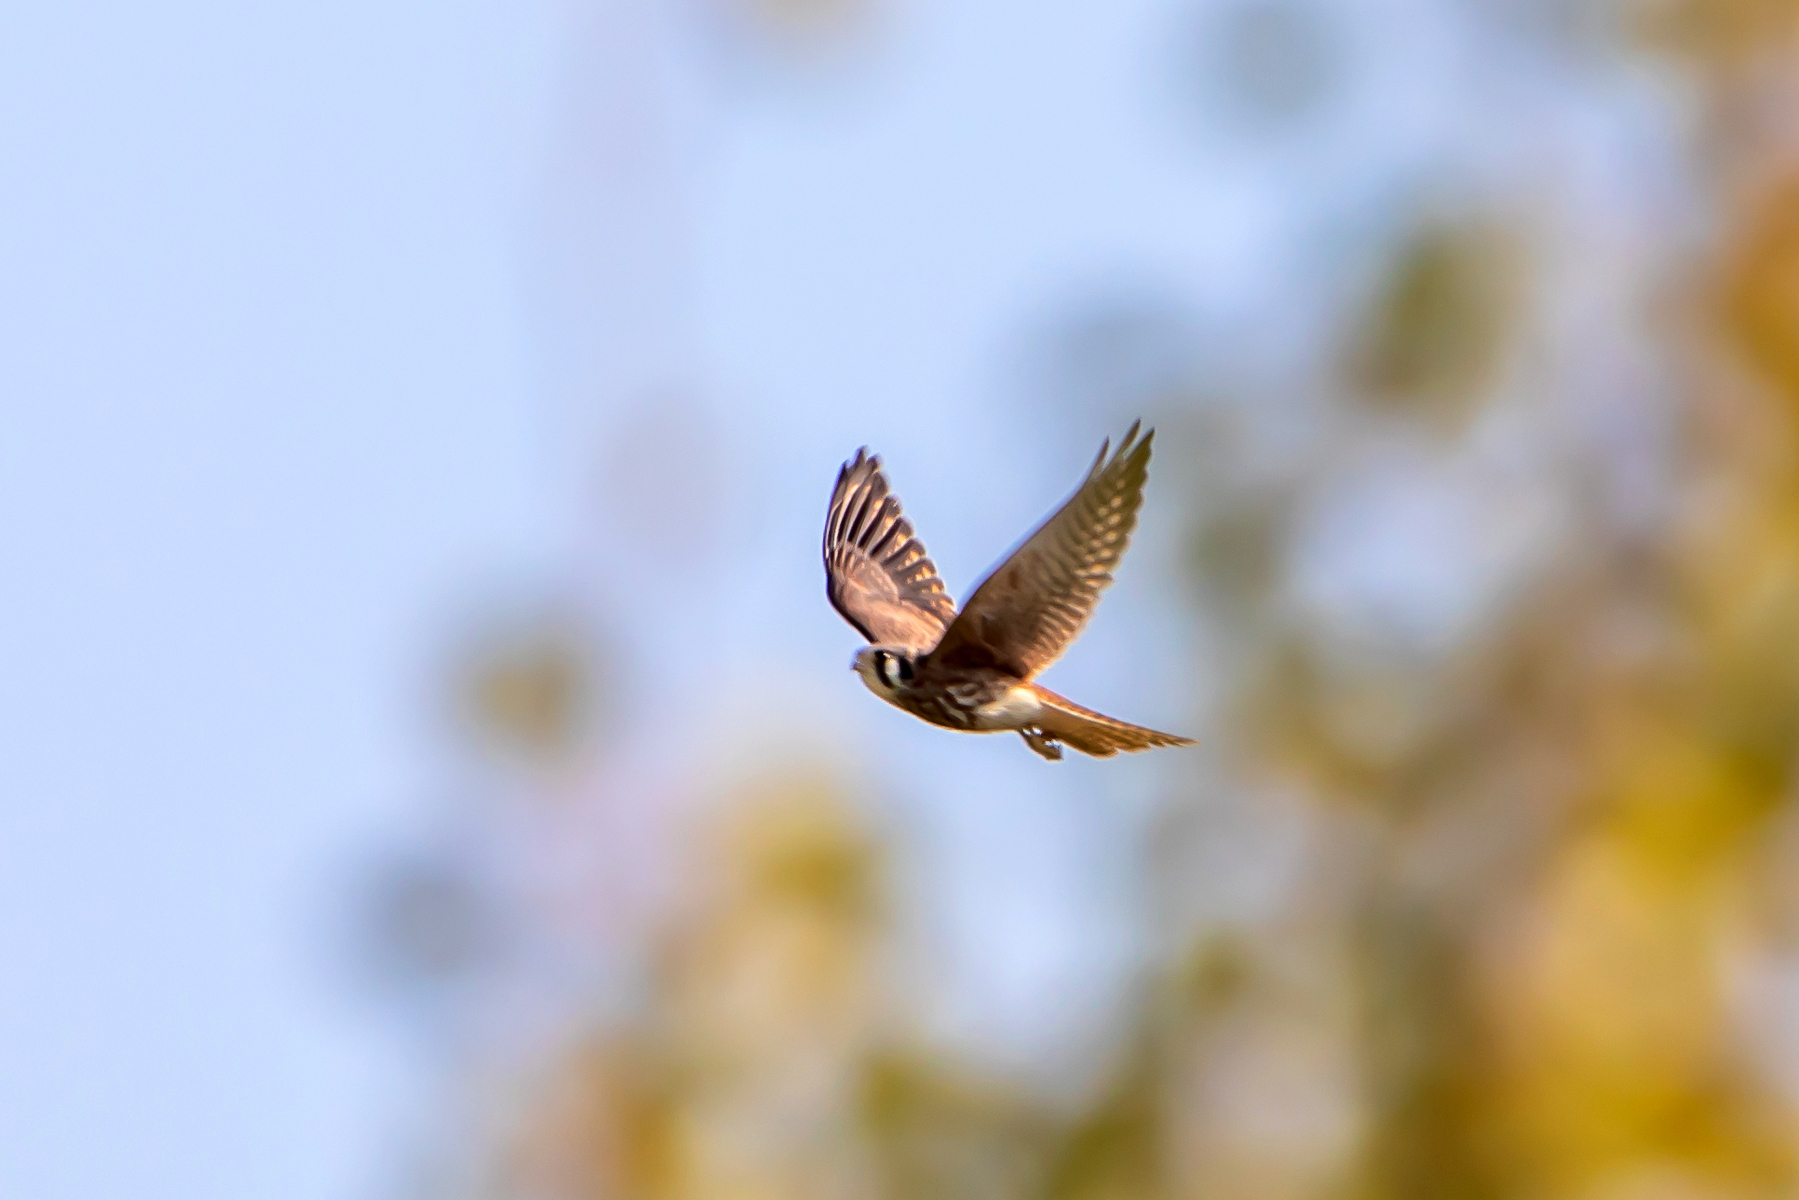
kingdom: Animalia
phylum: Chordata
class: Aves
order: Falconiformes
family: Falconidae
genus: Falco
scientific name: Falco sparverius
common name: American kestrel
